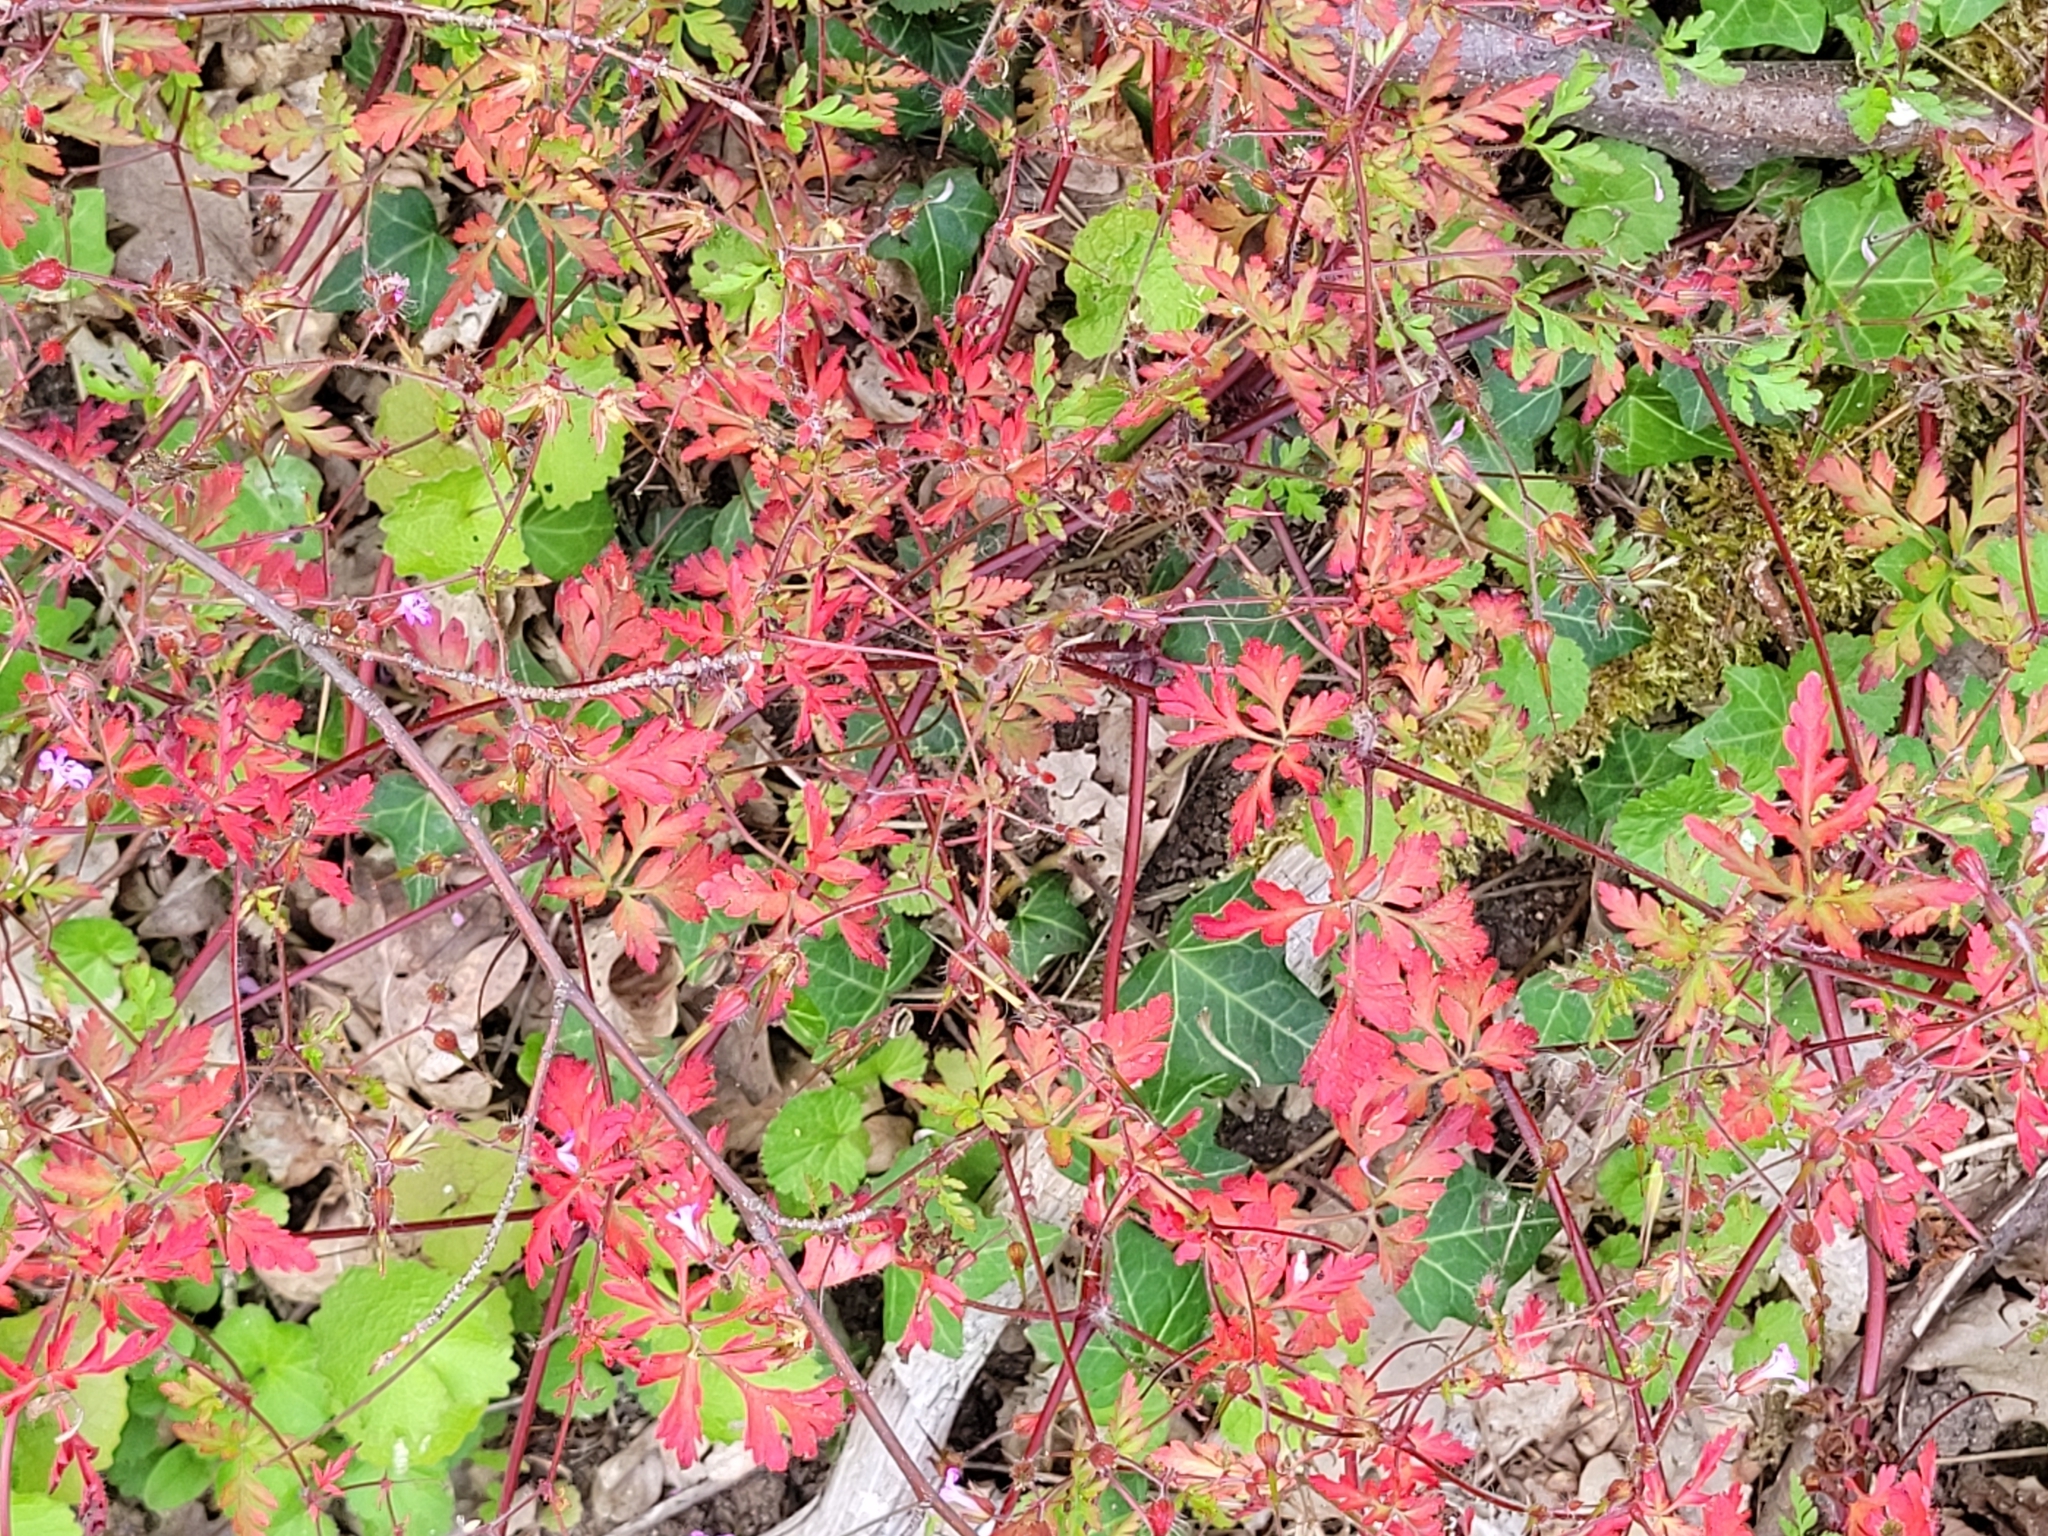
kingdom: Plantae
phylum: Tracheophyta
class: Magnoliopsida
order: Geraniales
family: Geraniaceae
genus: Geranium
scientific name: Geranium robertianum
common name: Herb-robert
